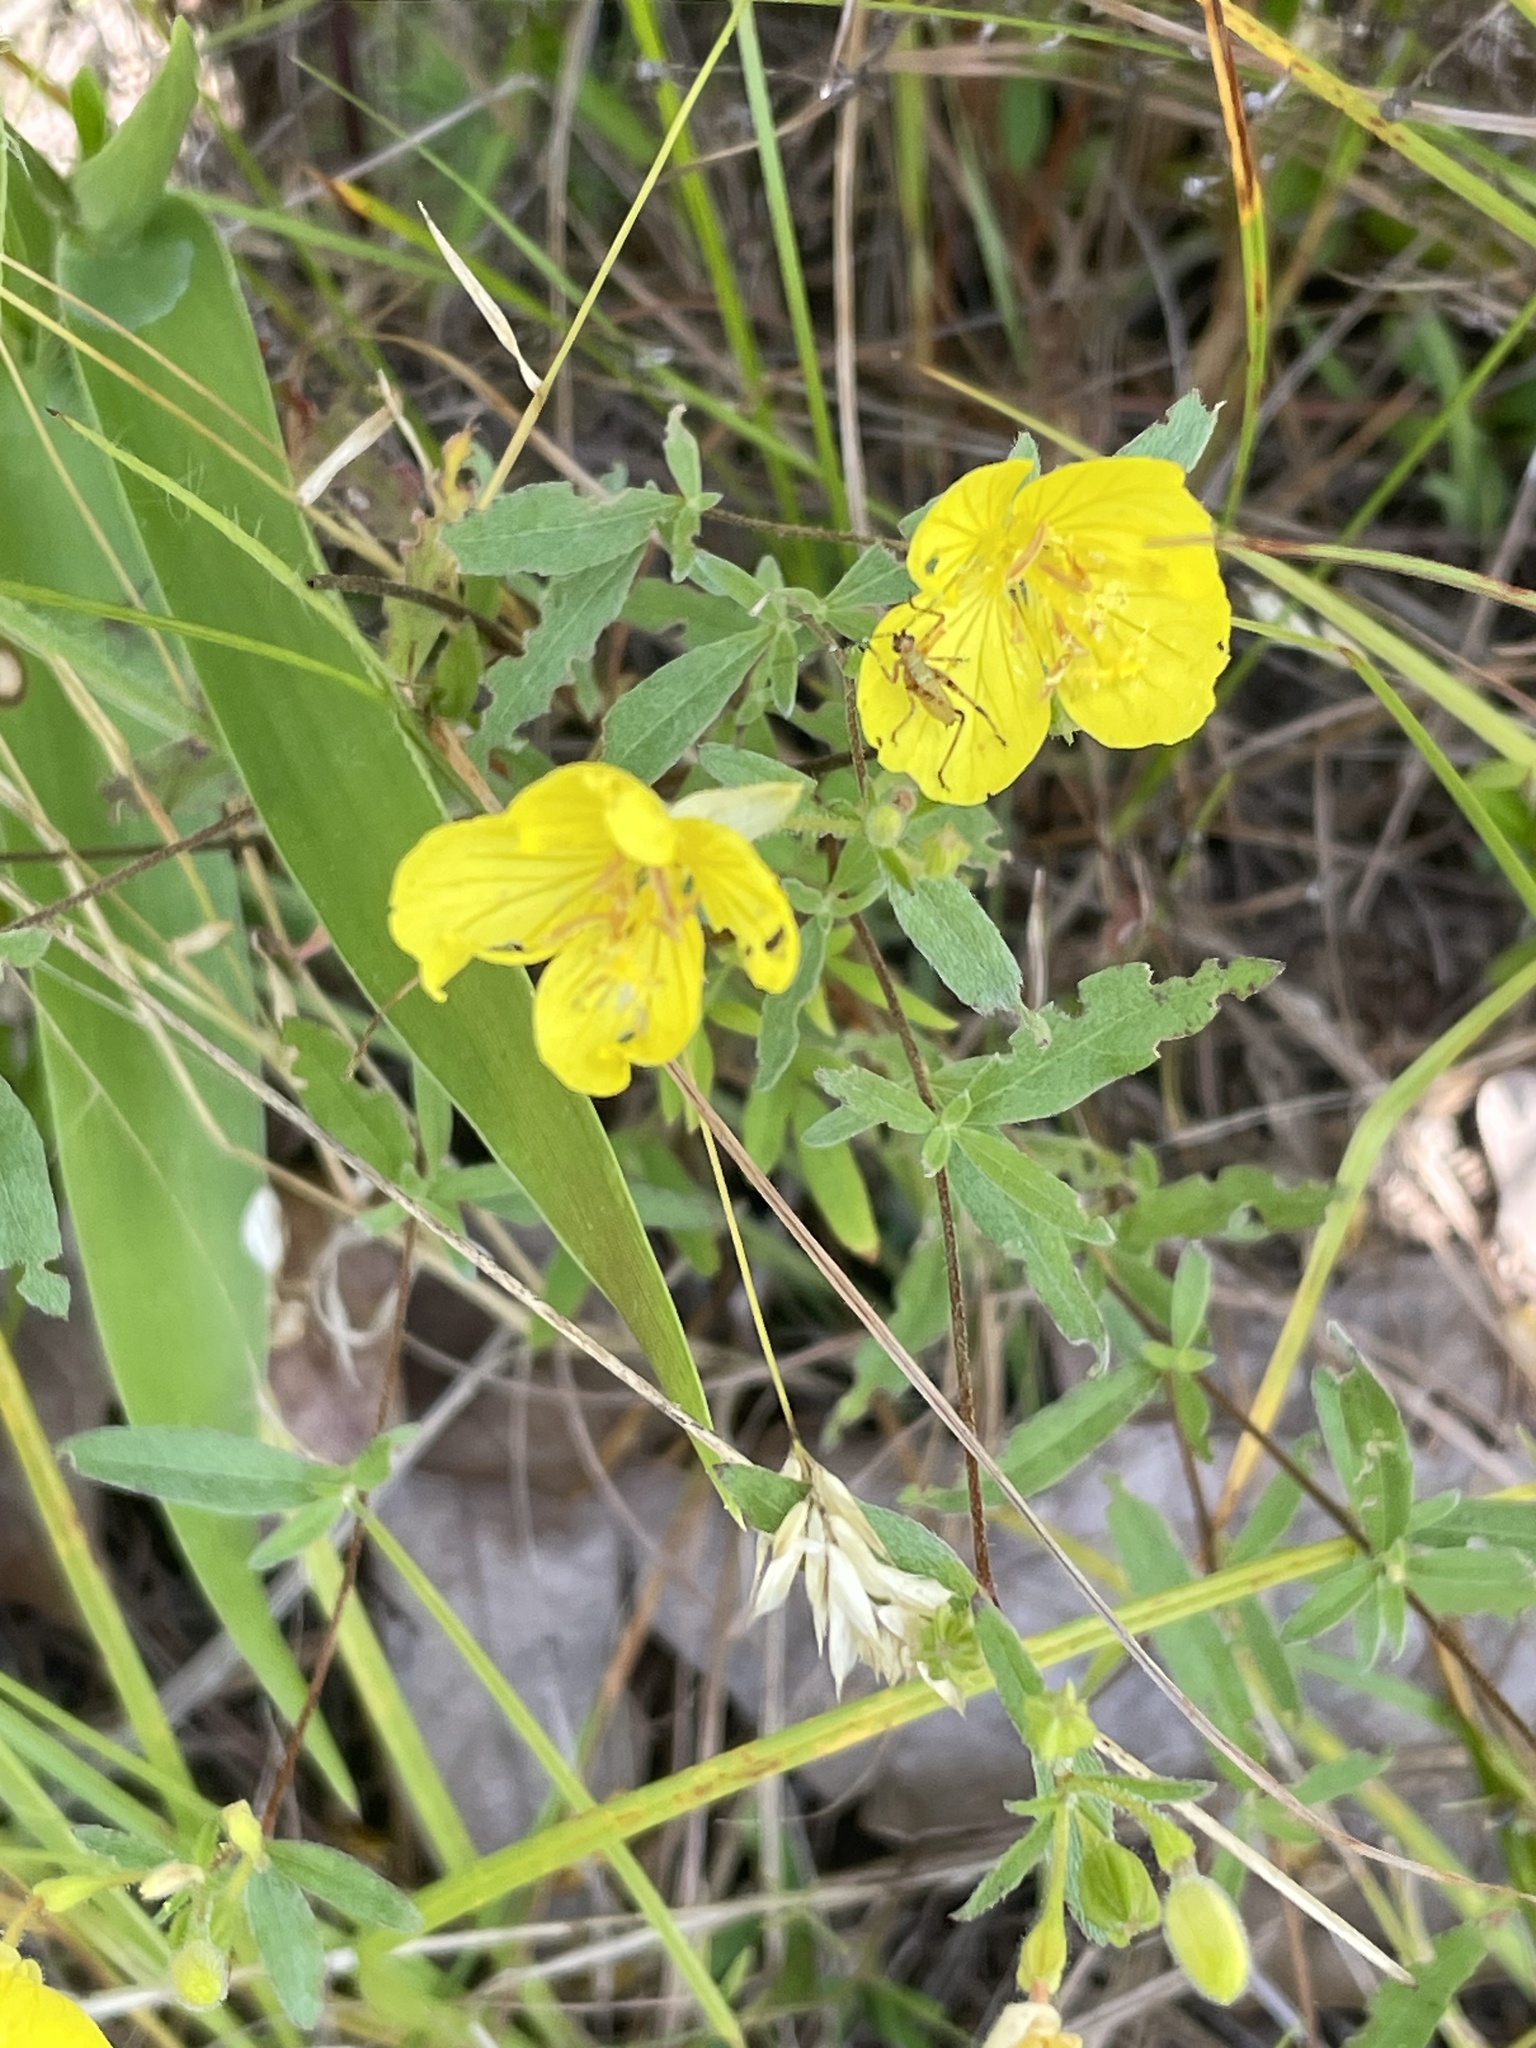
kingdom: Plantae
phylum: Tracheophyta
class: Magnoliopsida
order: Myrtales
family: Onagraceae
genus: Oenothera
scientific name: Oenothera fruticosa
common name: Southern sundrops
